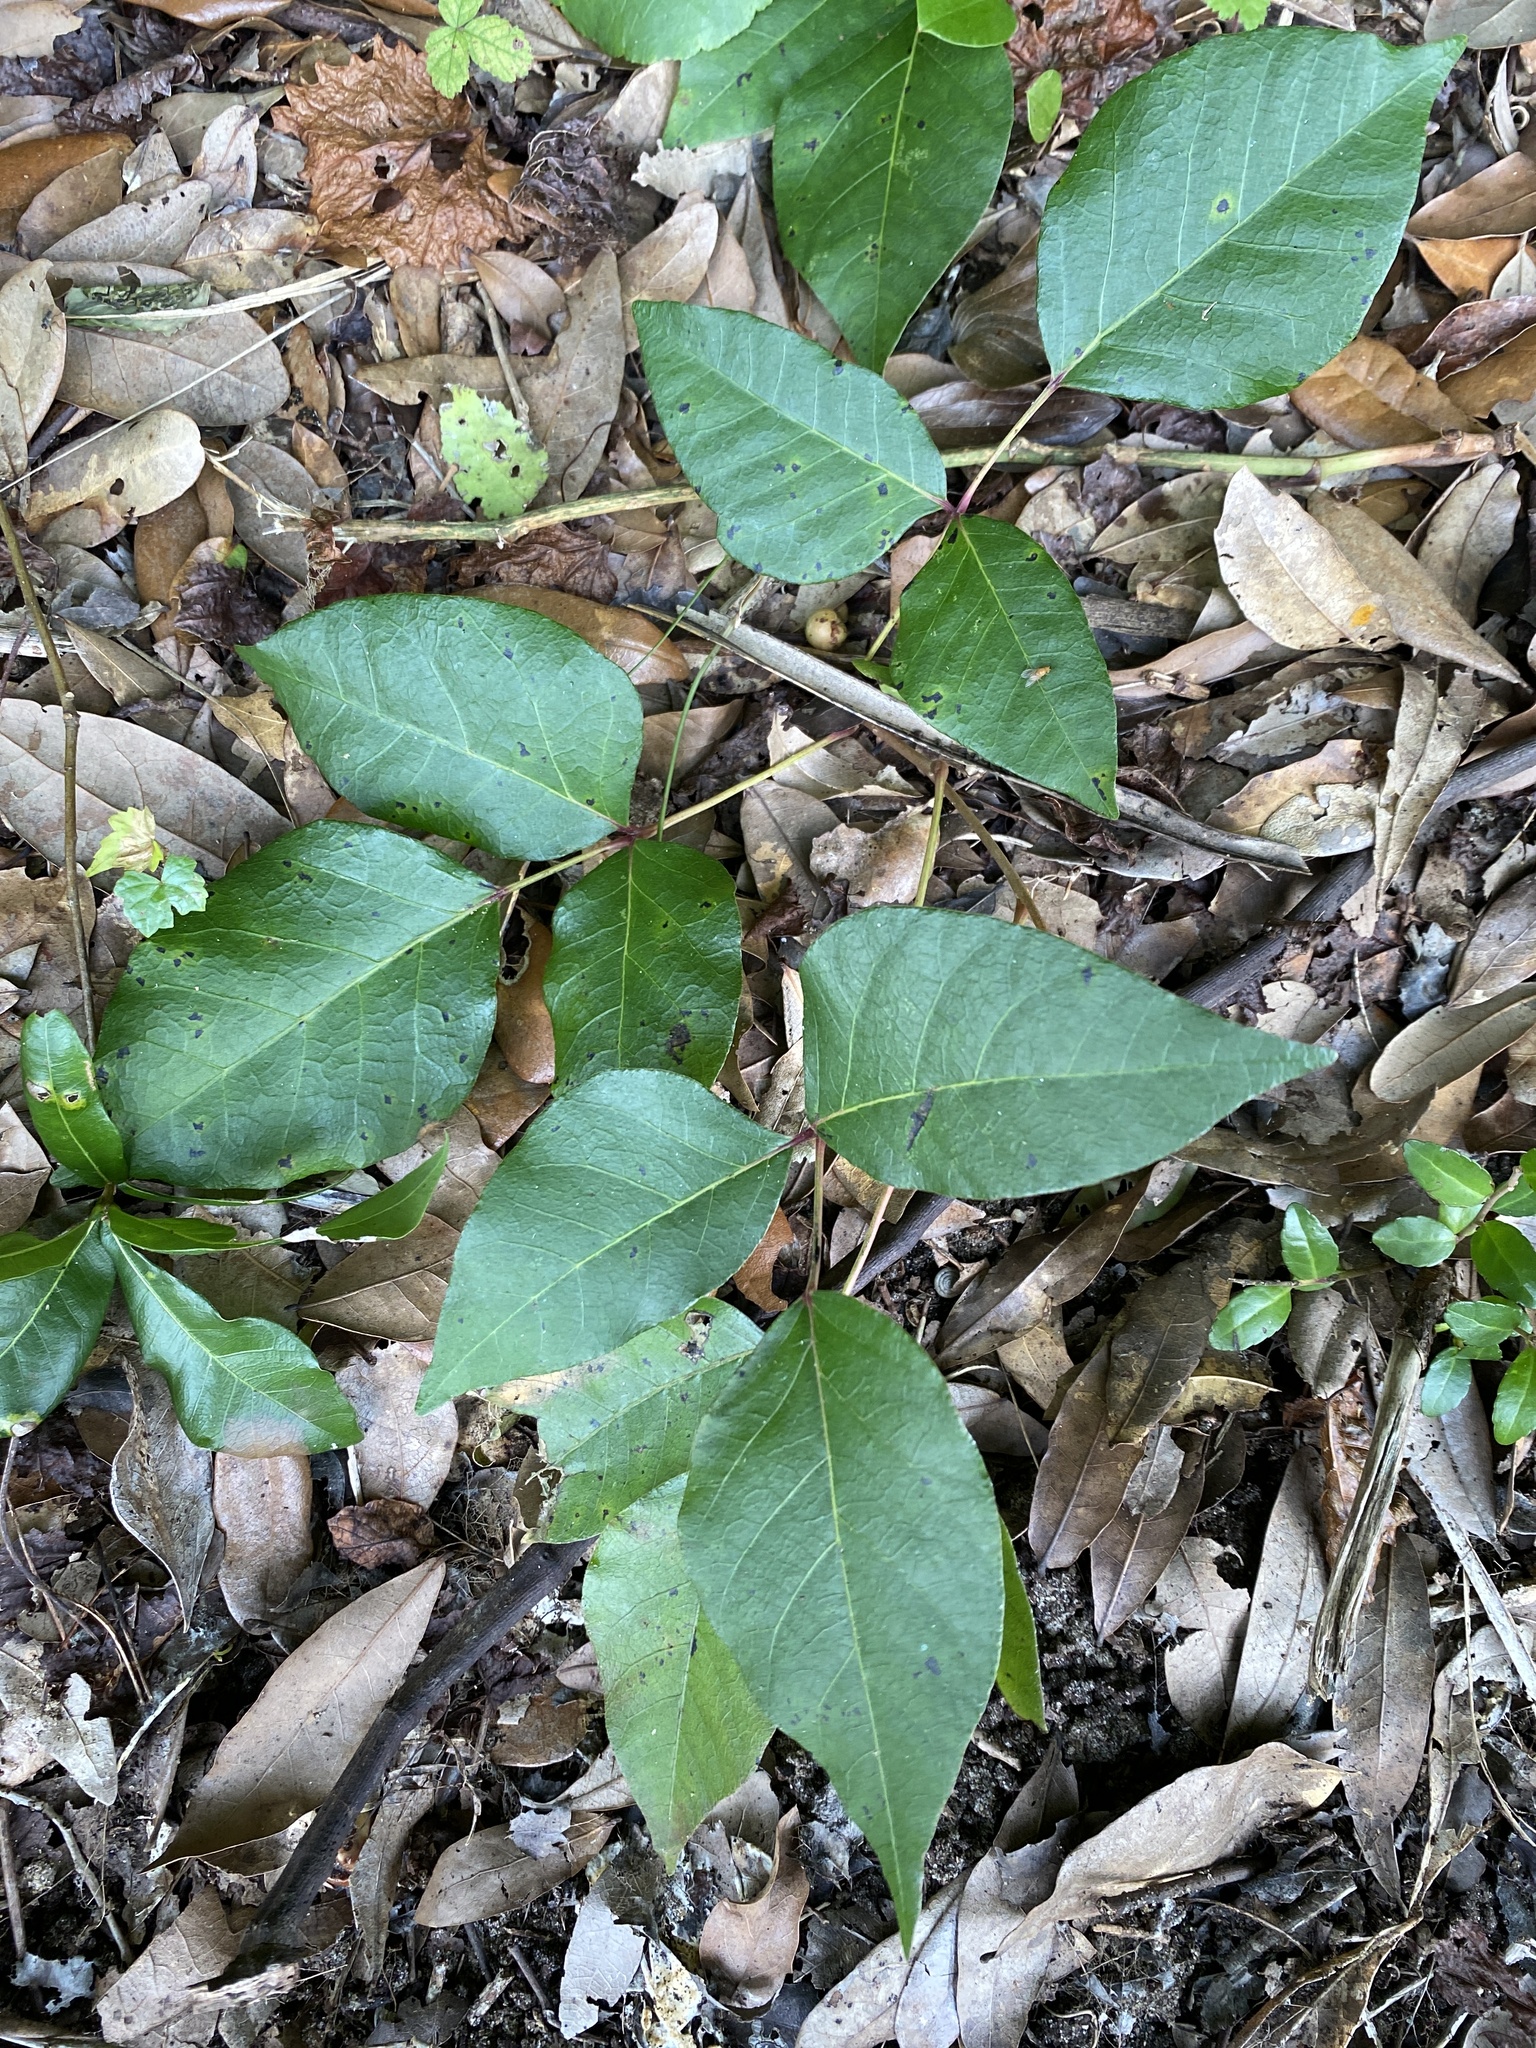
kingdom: Plantae
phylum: Tracheophyta
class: Magnoliopsida
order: Sapindales
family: Anacardiaceae
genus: Toxicodendron
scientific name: Toxicodendron radicans
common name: Poison ivy
